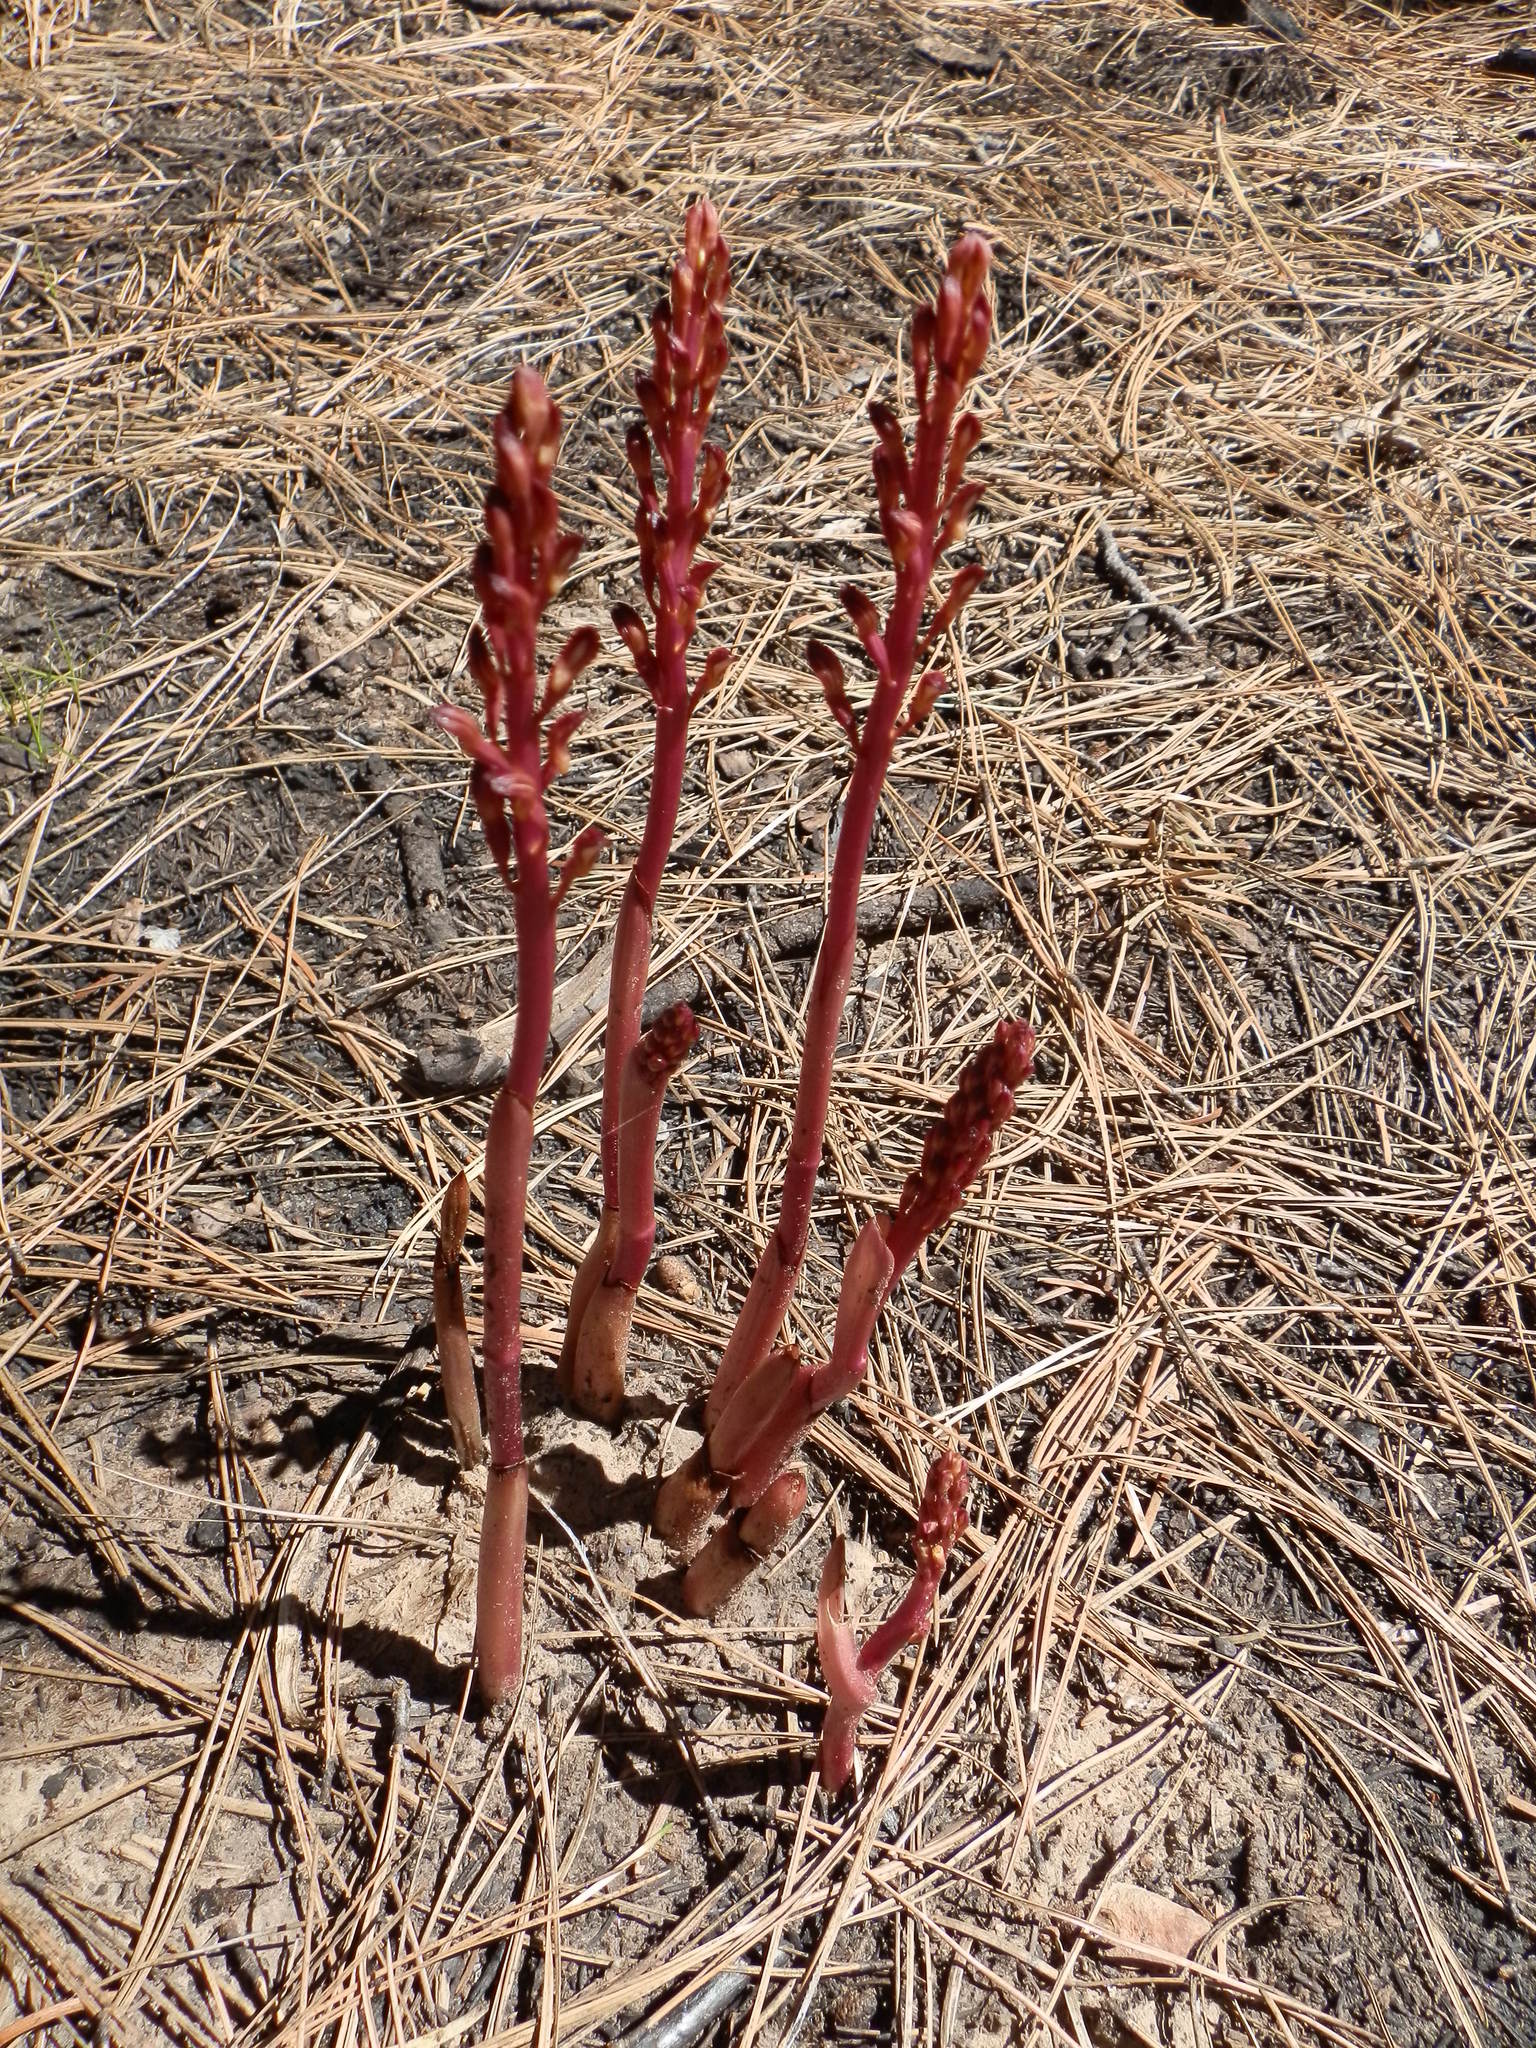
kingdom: Plantae
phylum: Tracheophyta
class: Liliopsida
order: Asparagales
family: Orchidaceae
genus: Corallorhiza
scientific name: Corallorhiza maculata
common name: Spotted coralroot
